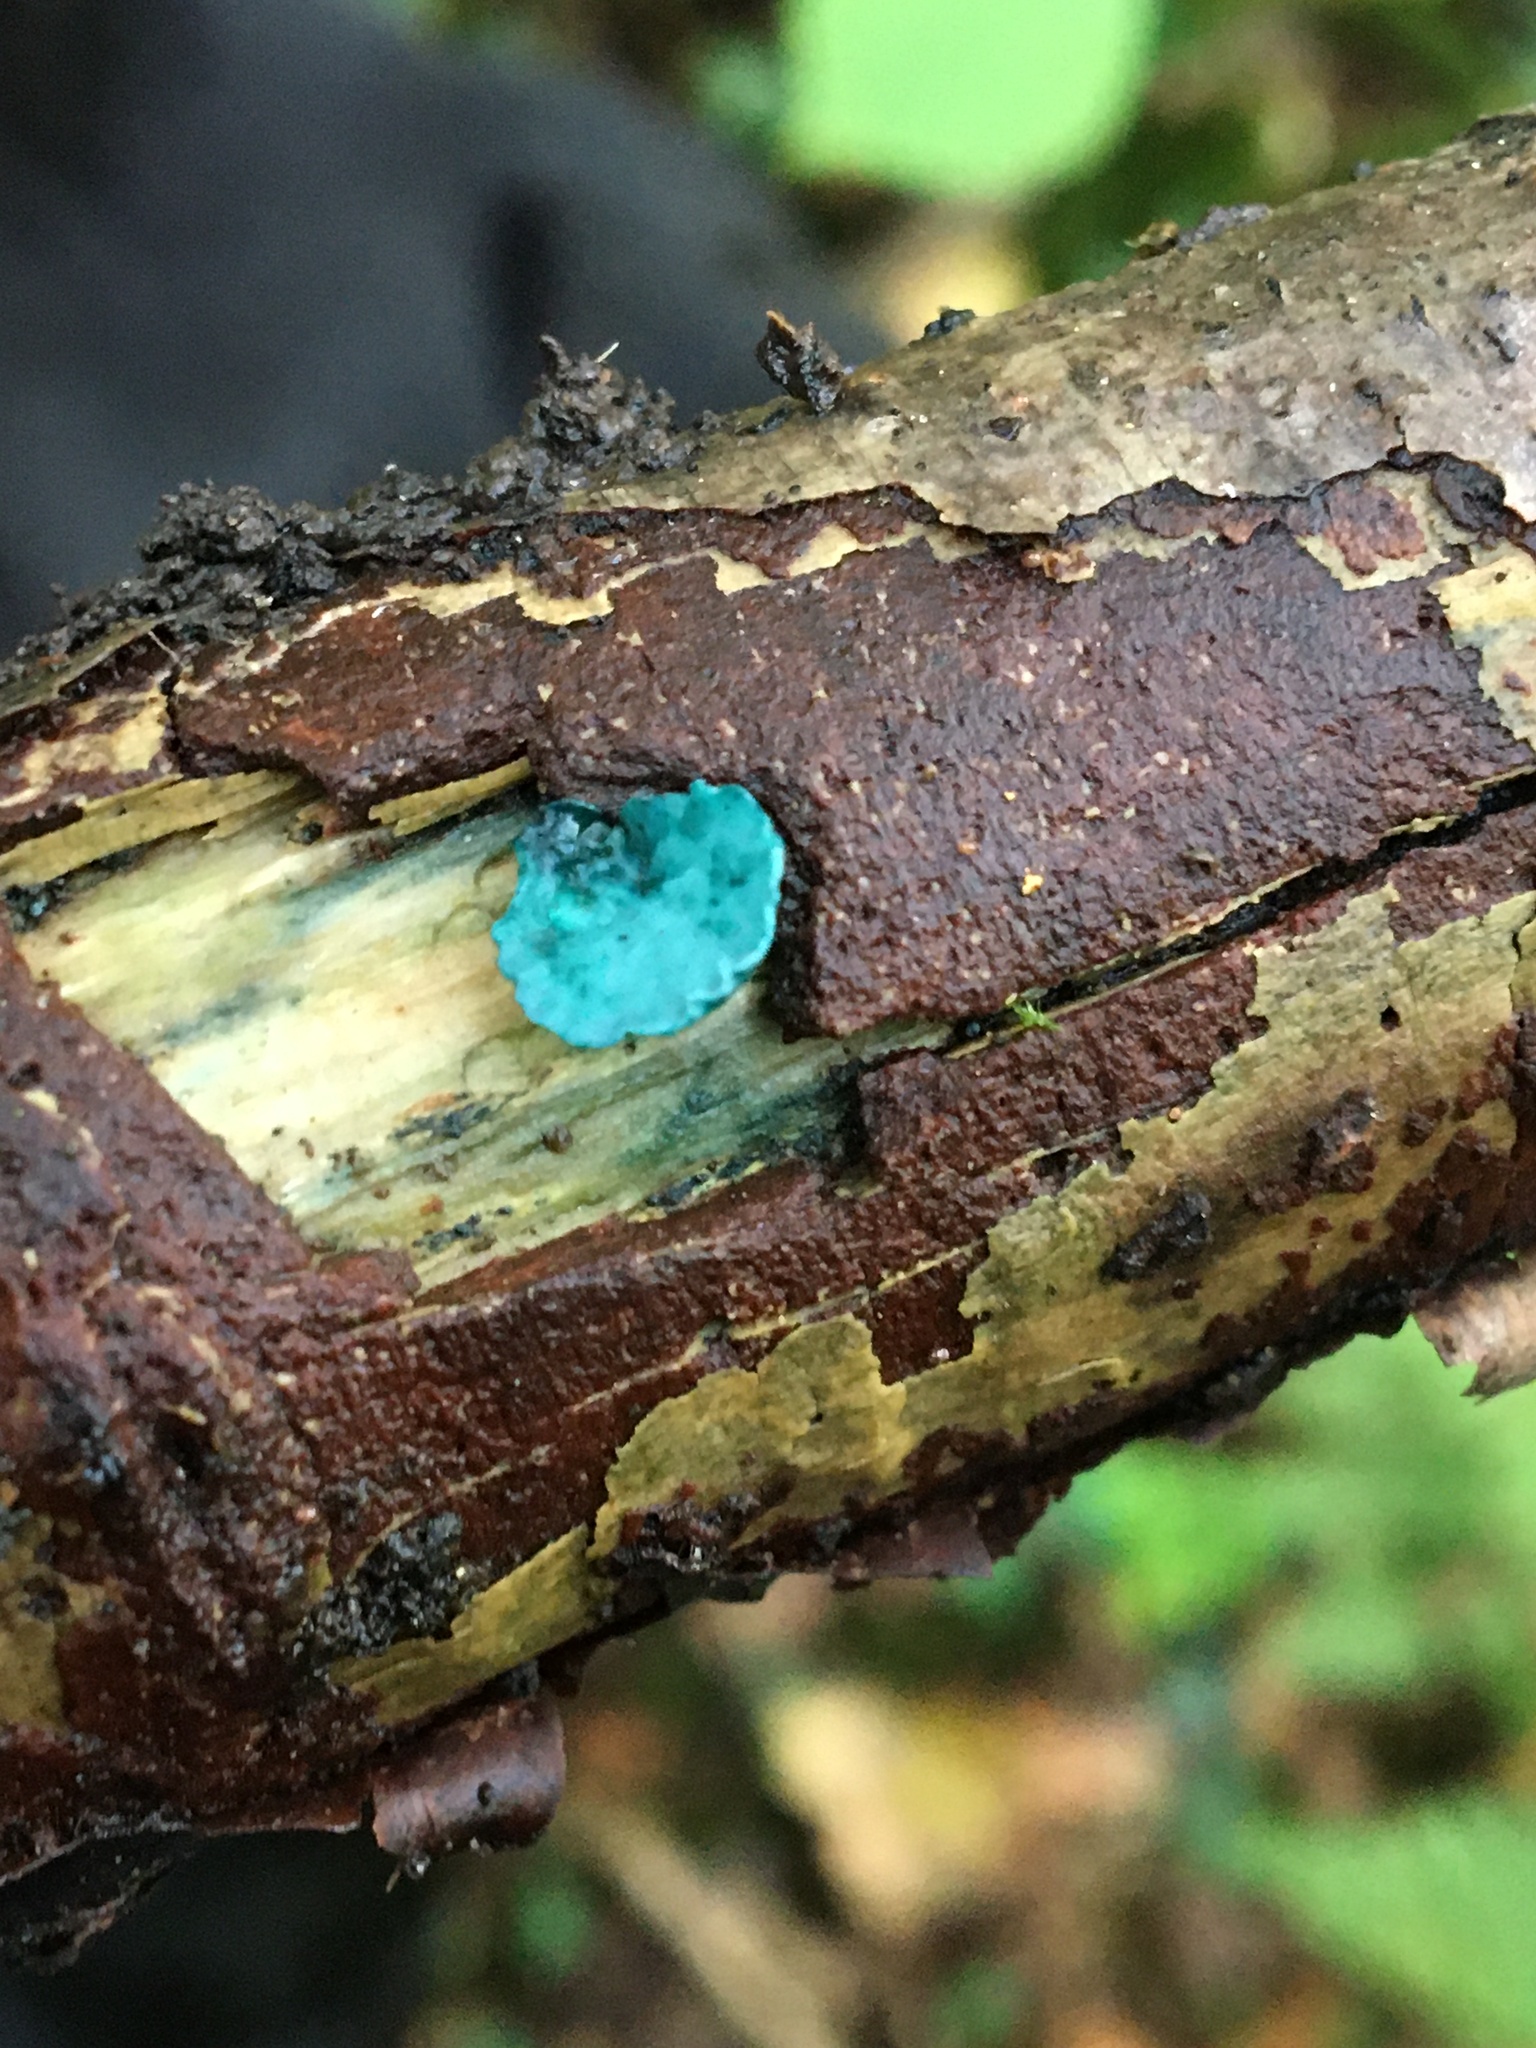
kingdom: Fungi
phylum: Ascomycota
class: Leotiomycetes
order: Helotiales
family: Chlorociboriaceae
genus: Chlorociboria
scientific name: Chlorociboria aeruginascens
